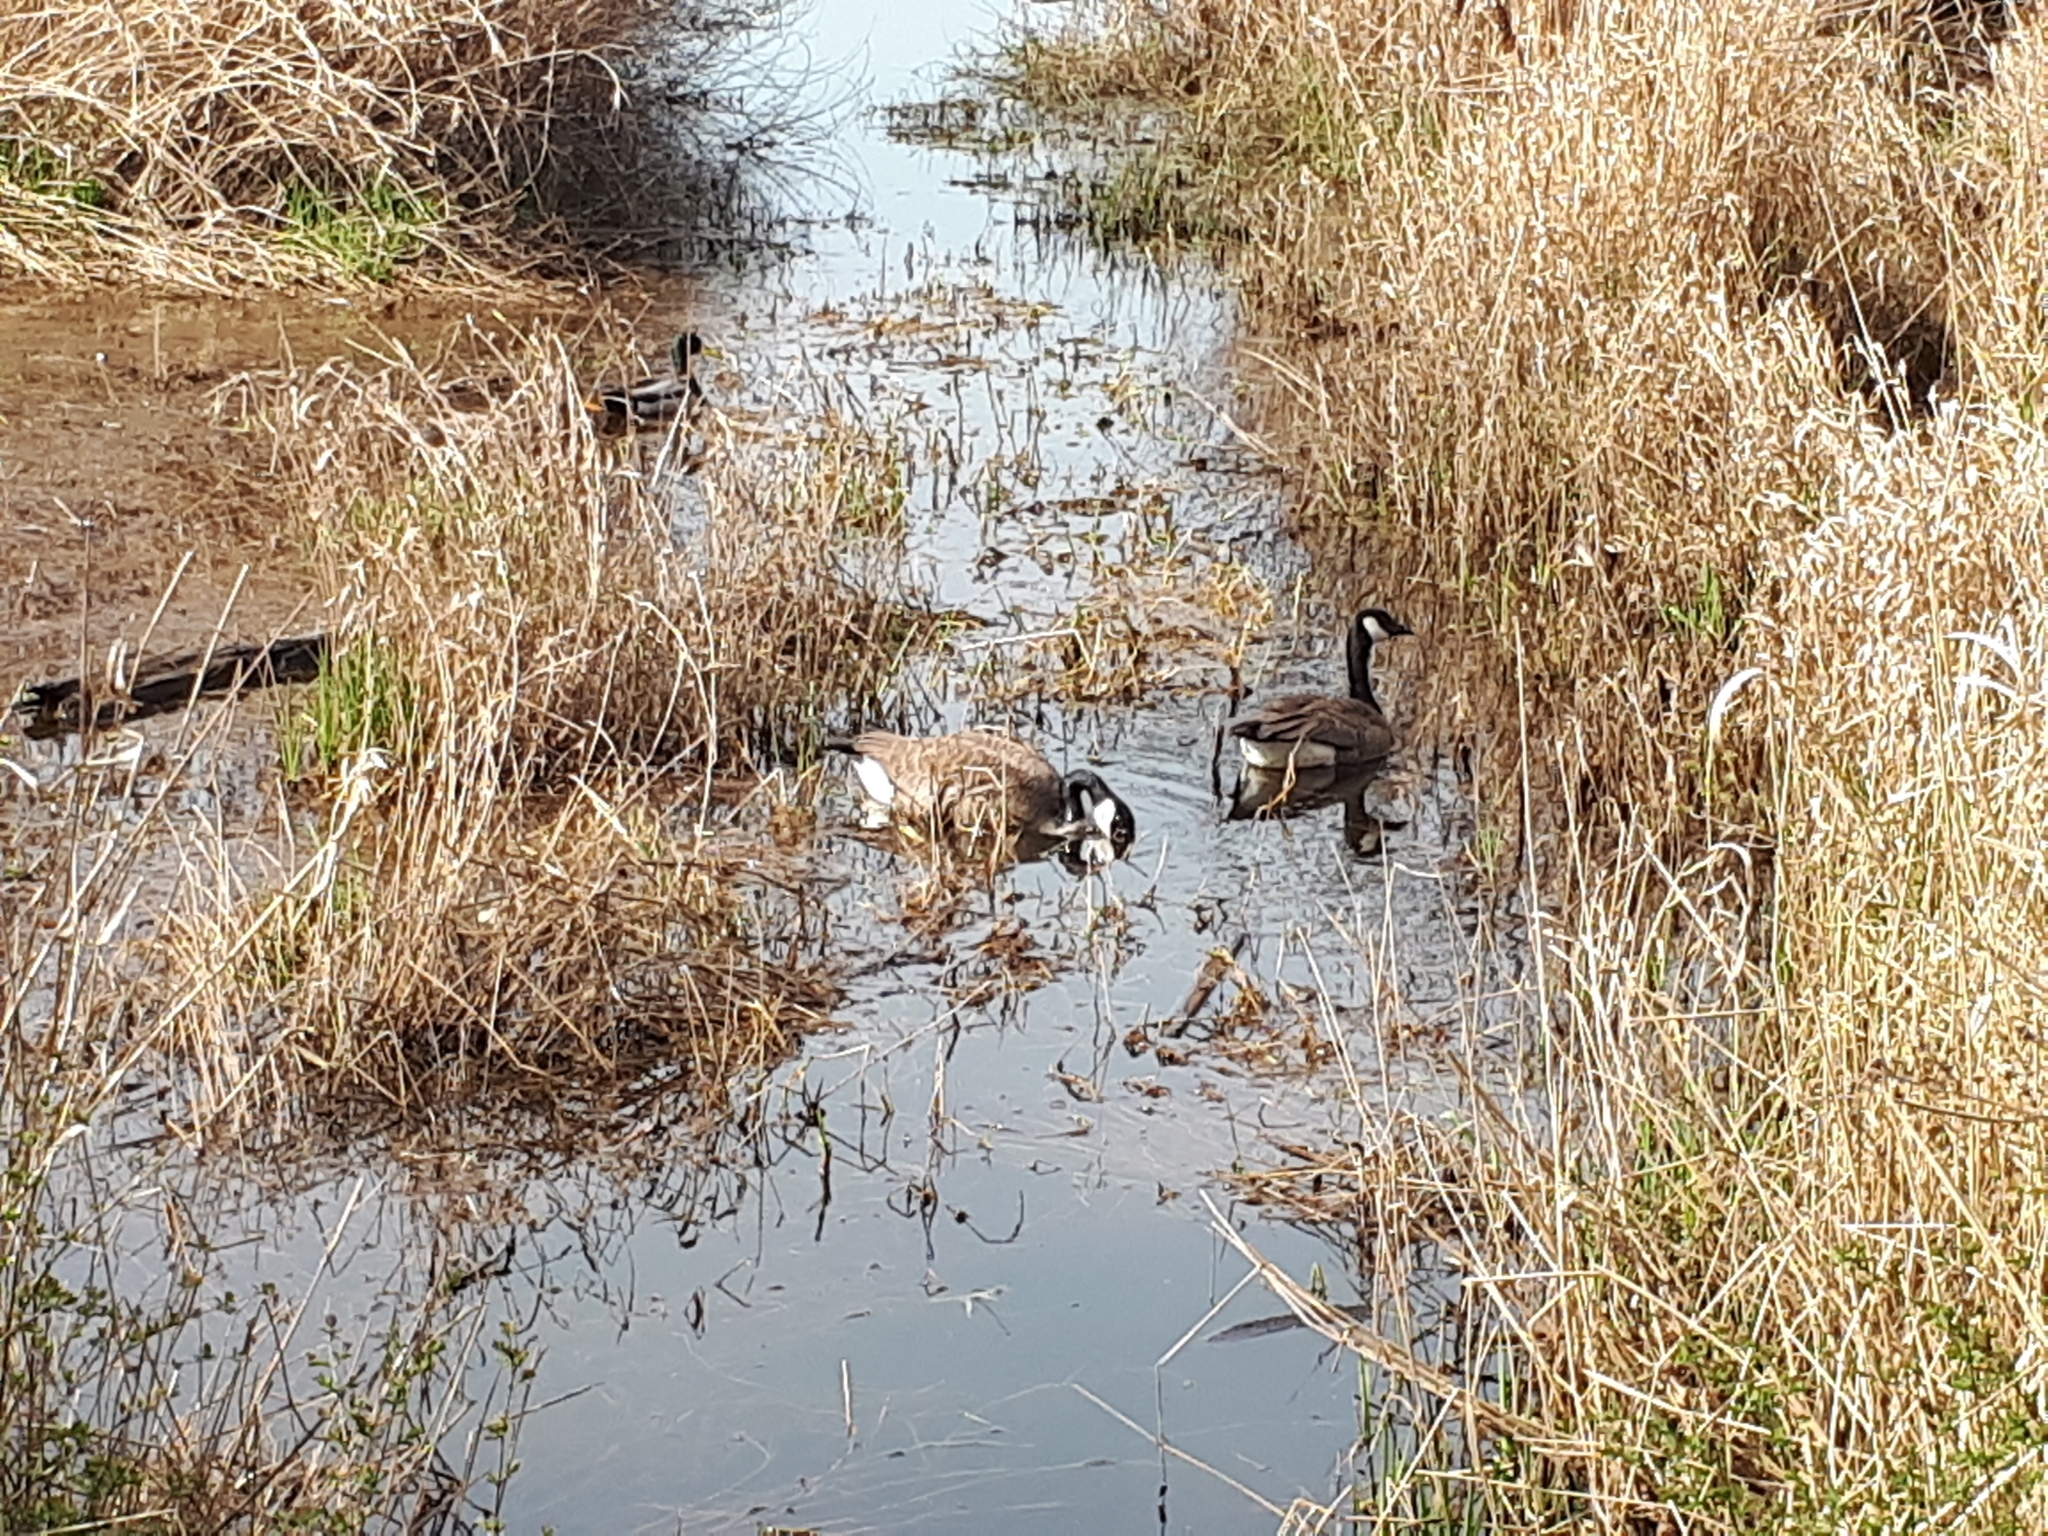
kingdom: Animalia
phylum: Chordata
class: Aves
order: Anseriformes
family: Anatidae
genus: Branta
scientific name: Branta canadensis
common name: Canada goose
